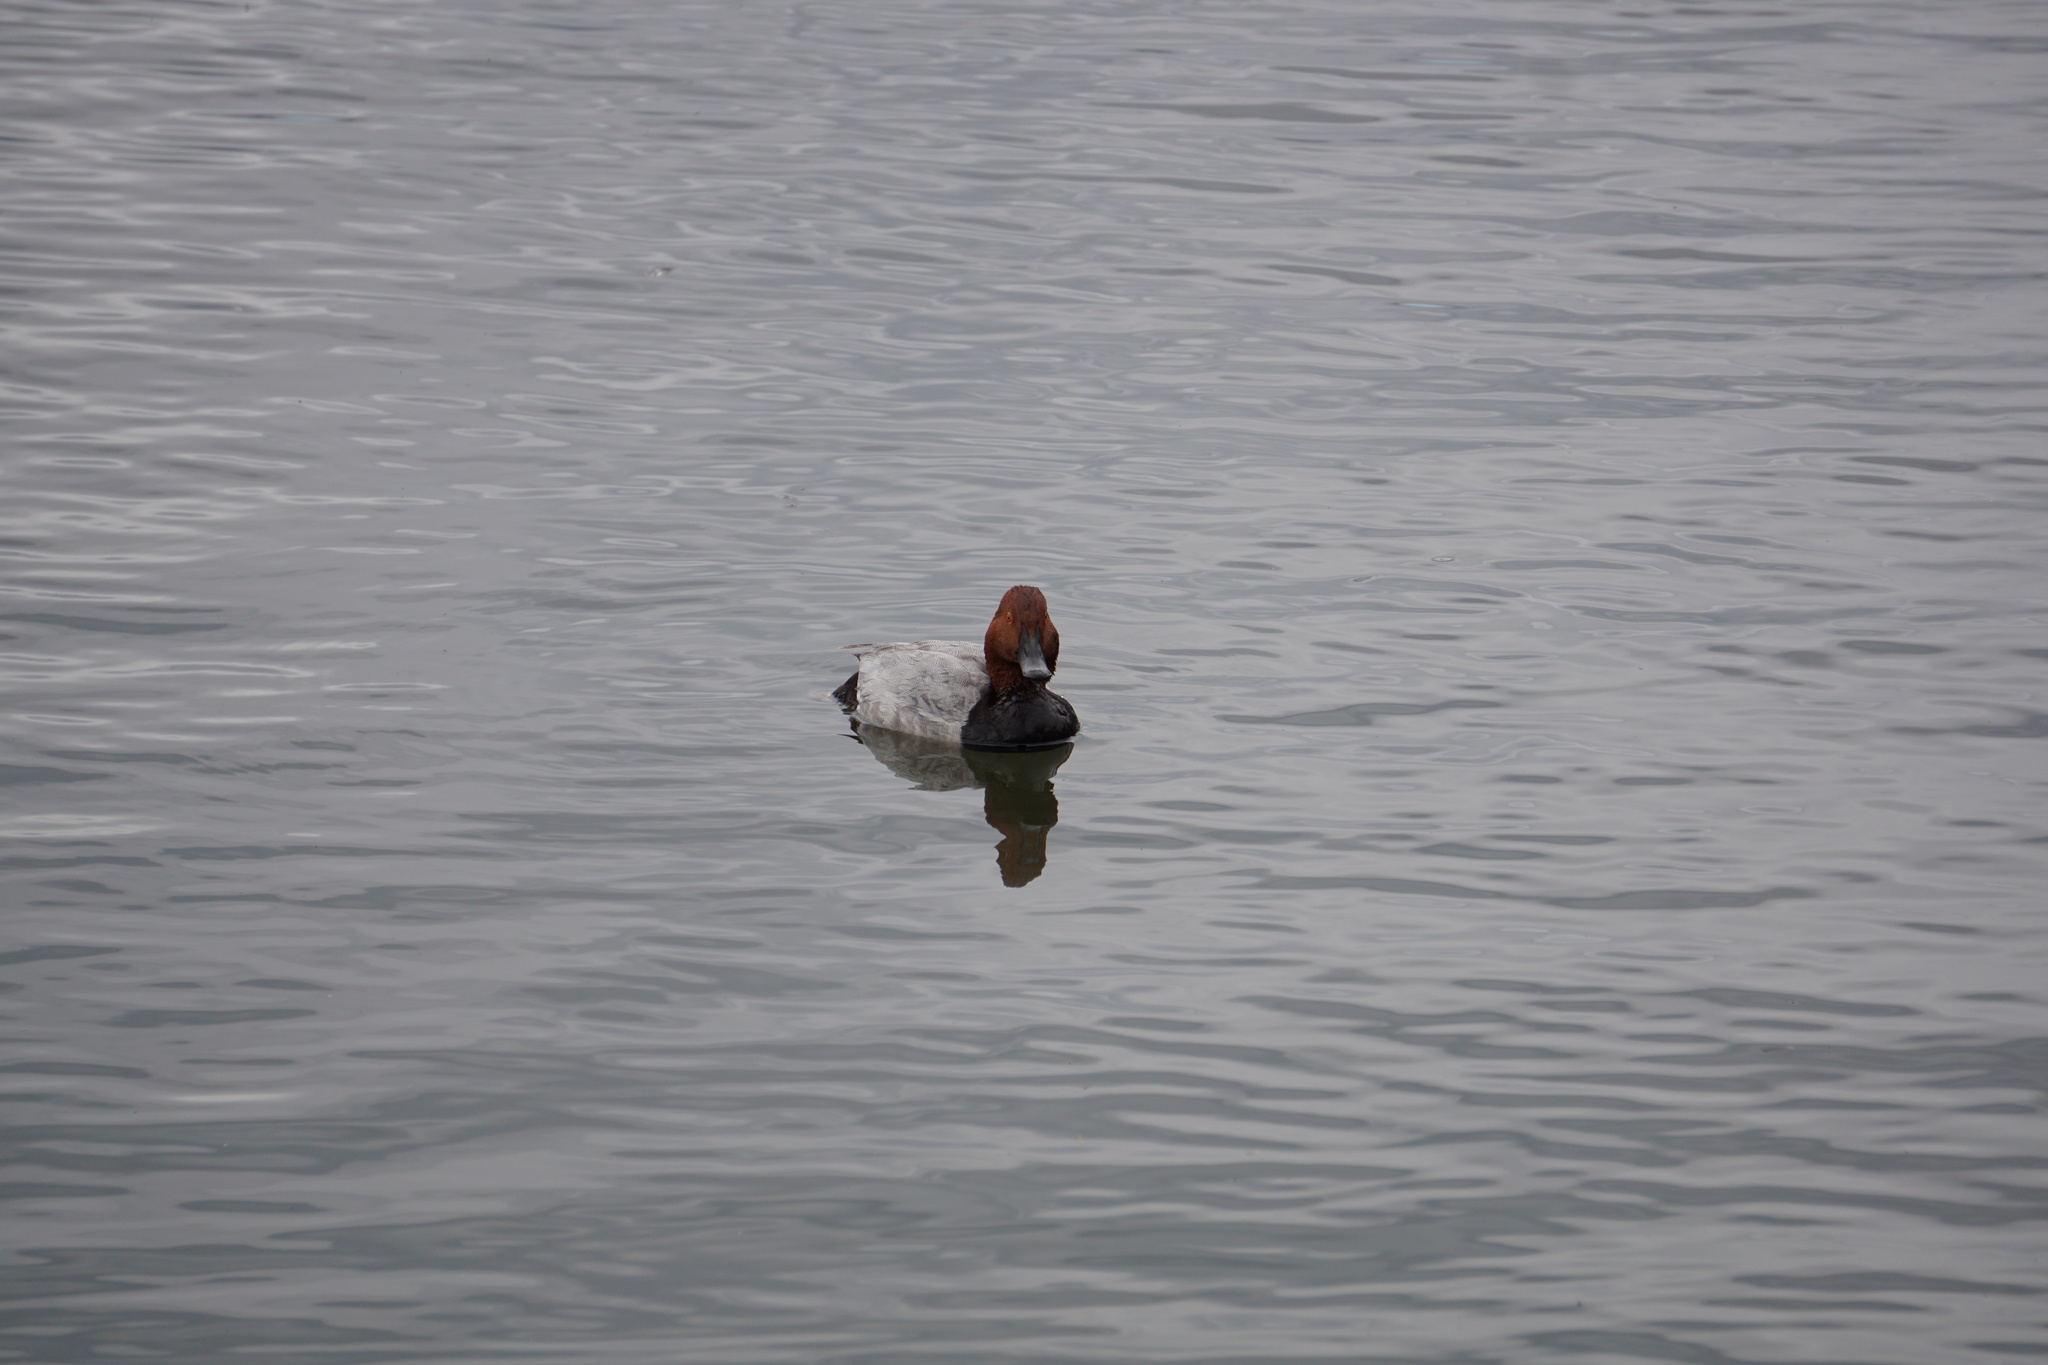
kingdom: Animalia
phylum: Chordata
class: Aves
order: Anseriformes
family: Anatidae
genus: Aythya
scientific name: Aythya ferina
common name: Common pochard
